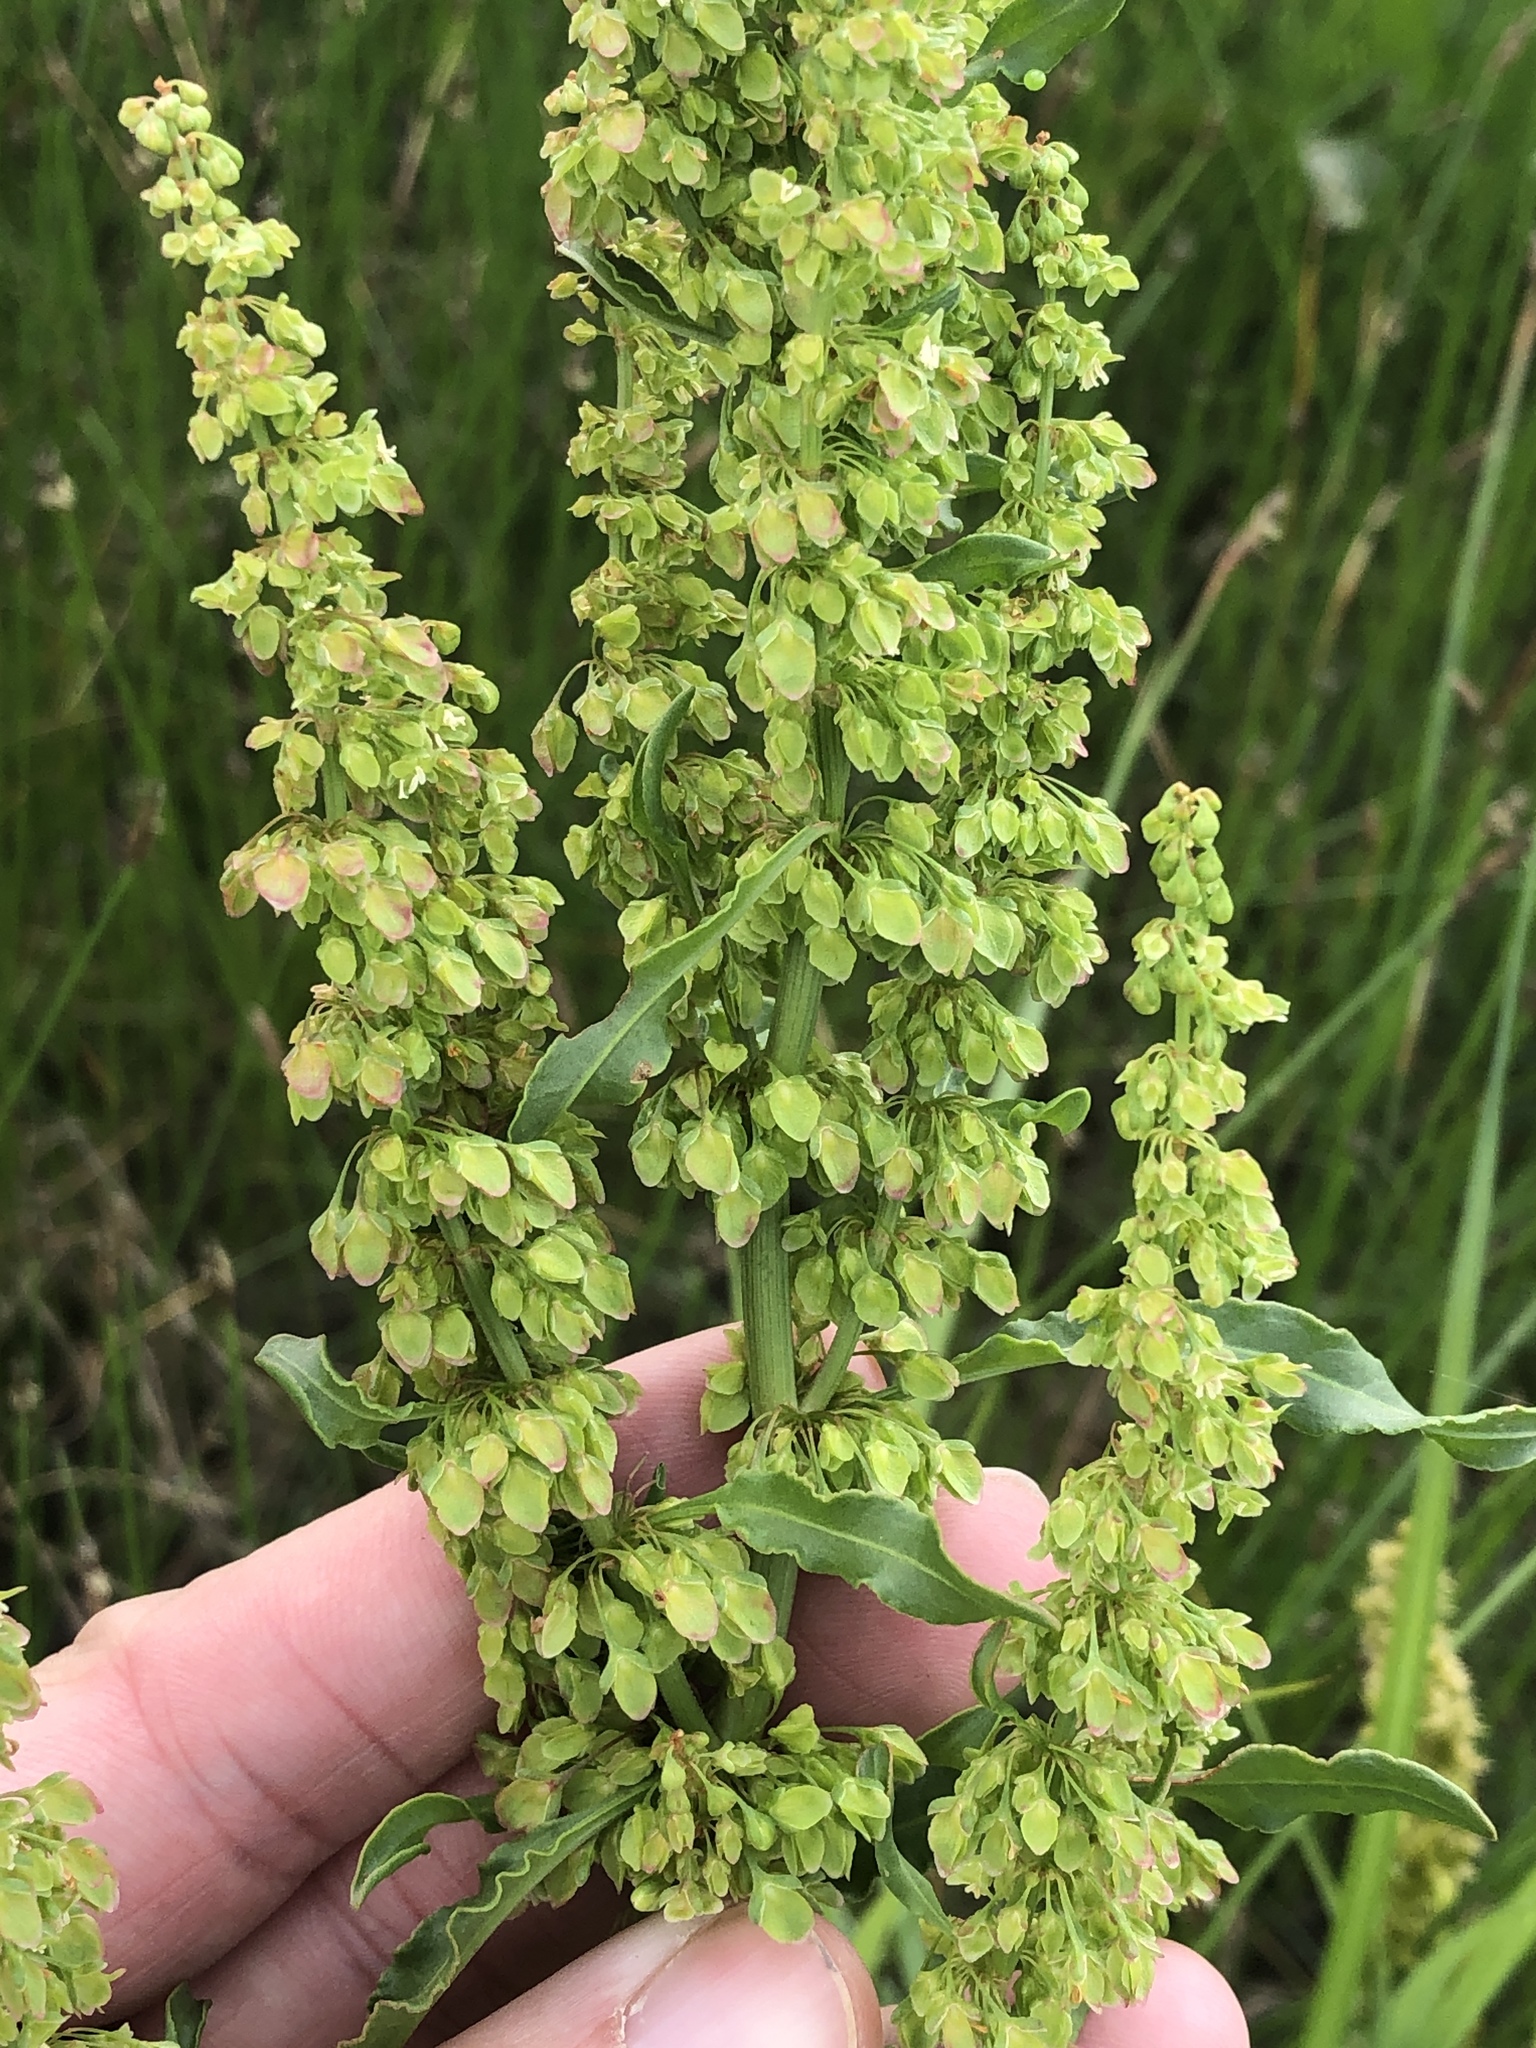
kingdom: Plantae
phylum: Tracheophyta
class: Magnoliopsida
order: Caryophyllales
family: Polygonaceae
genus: Rumex
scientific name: Rumex crispus
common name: Curled dock
